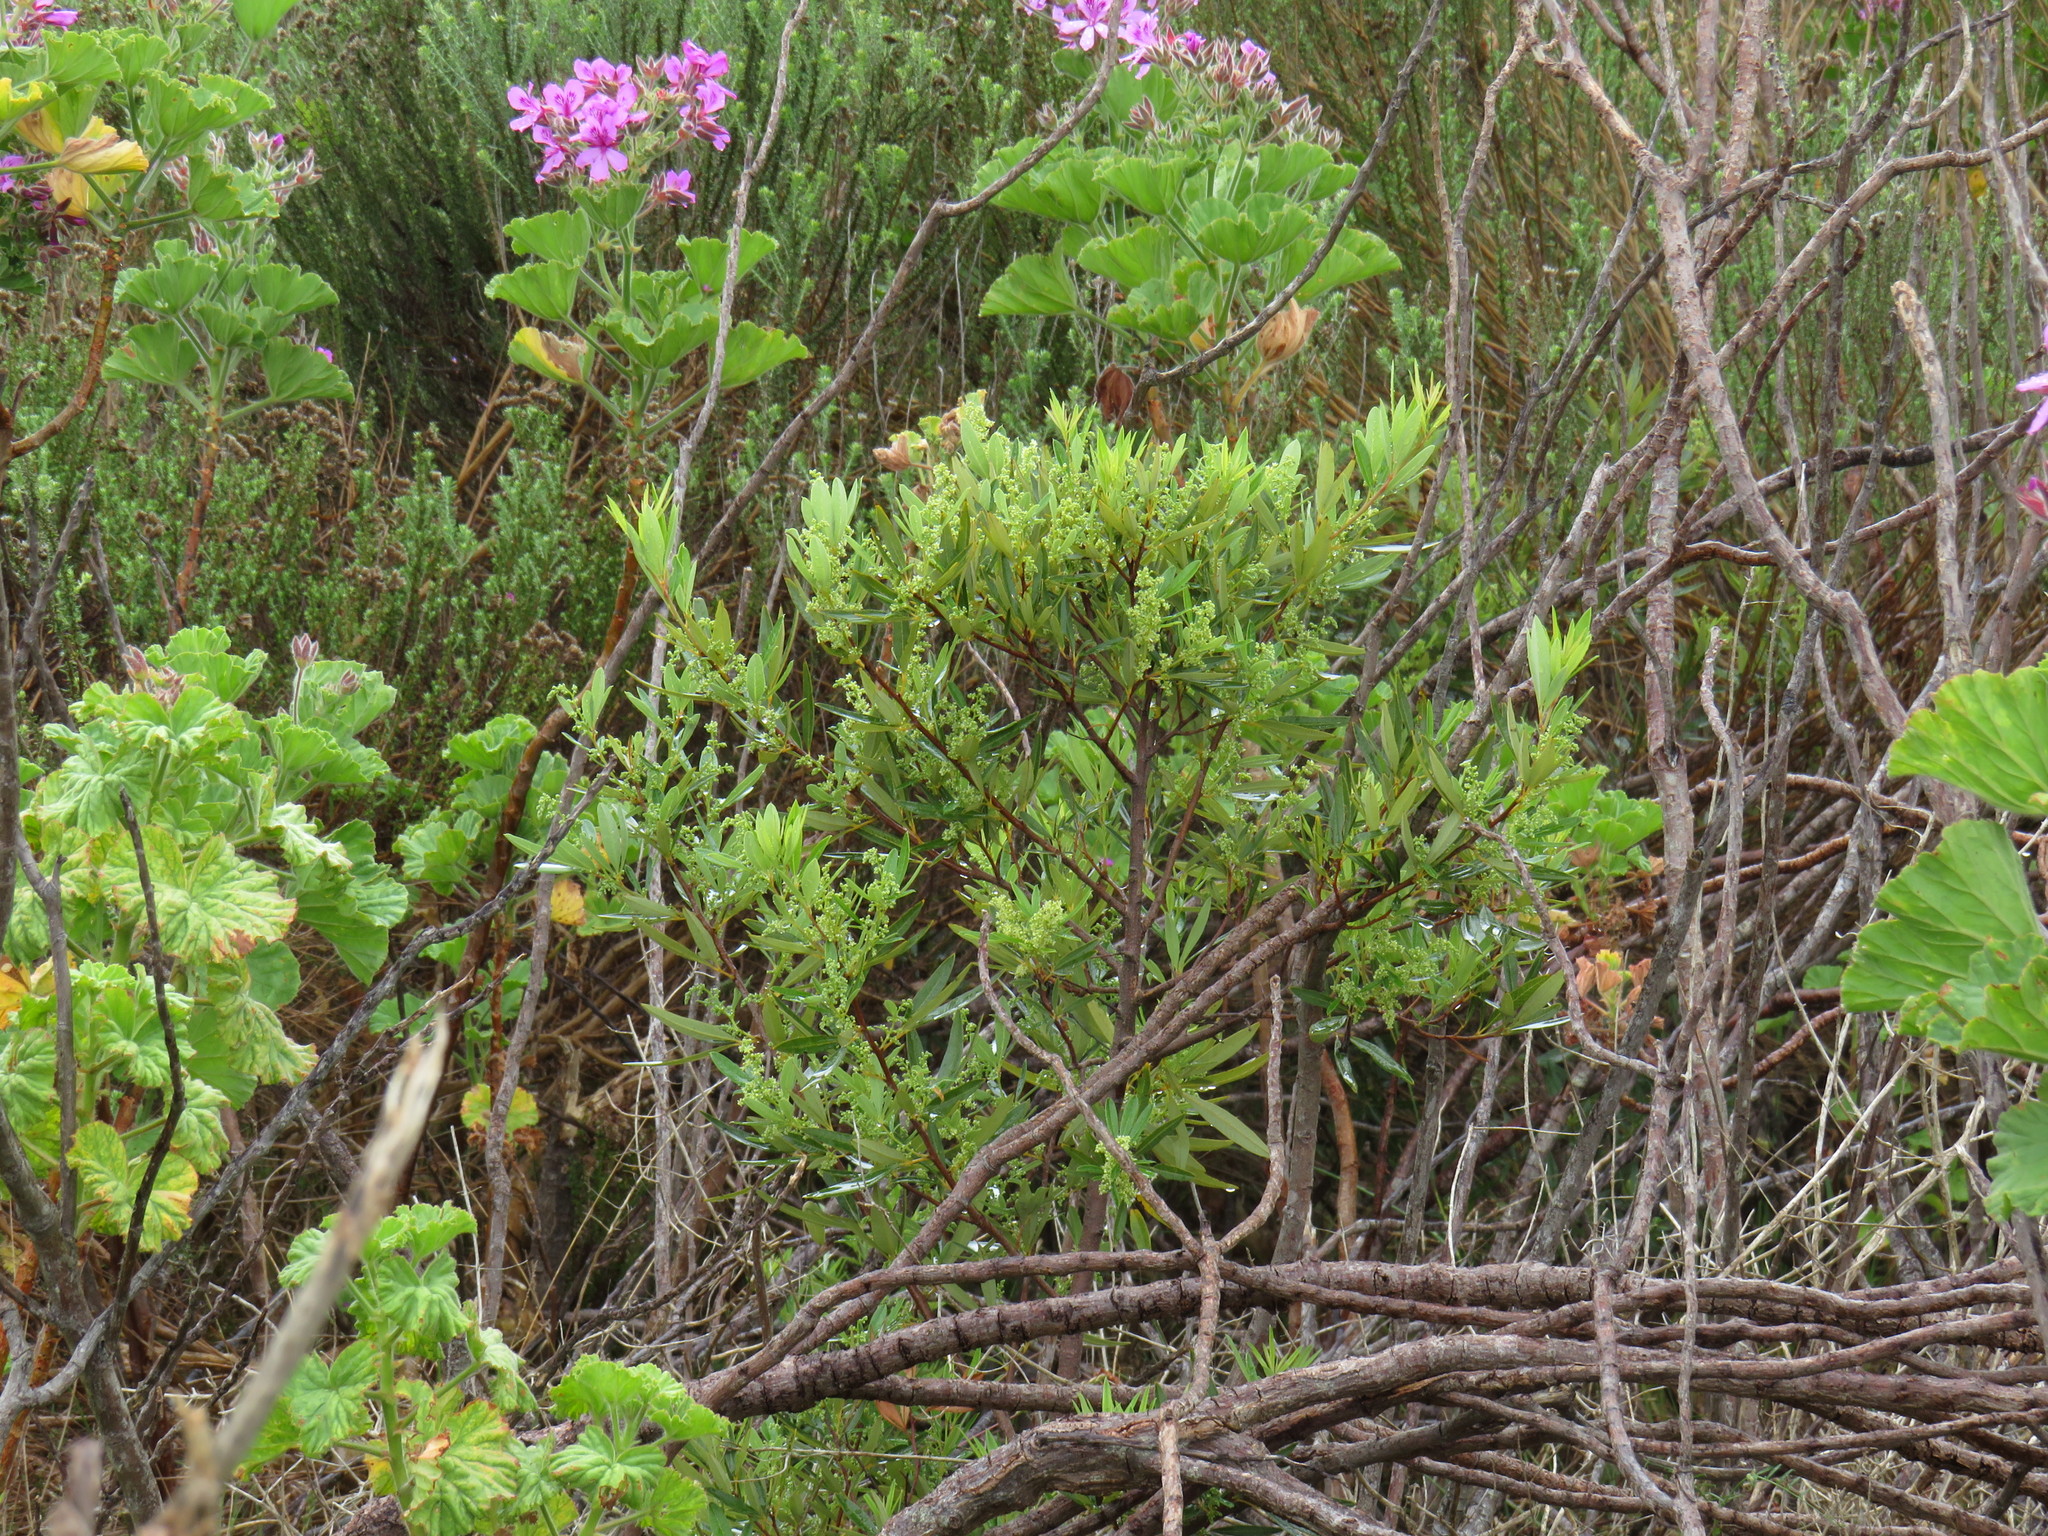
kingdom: Plantae
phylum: Tracheophyta
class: Magnoliopsida
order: Sapindales
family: Anacardiaceae
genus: Searsia
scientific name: Searsia angustifolia
